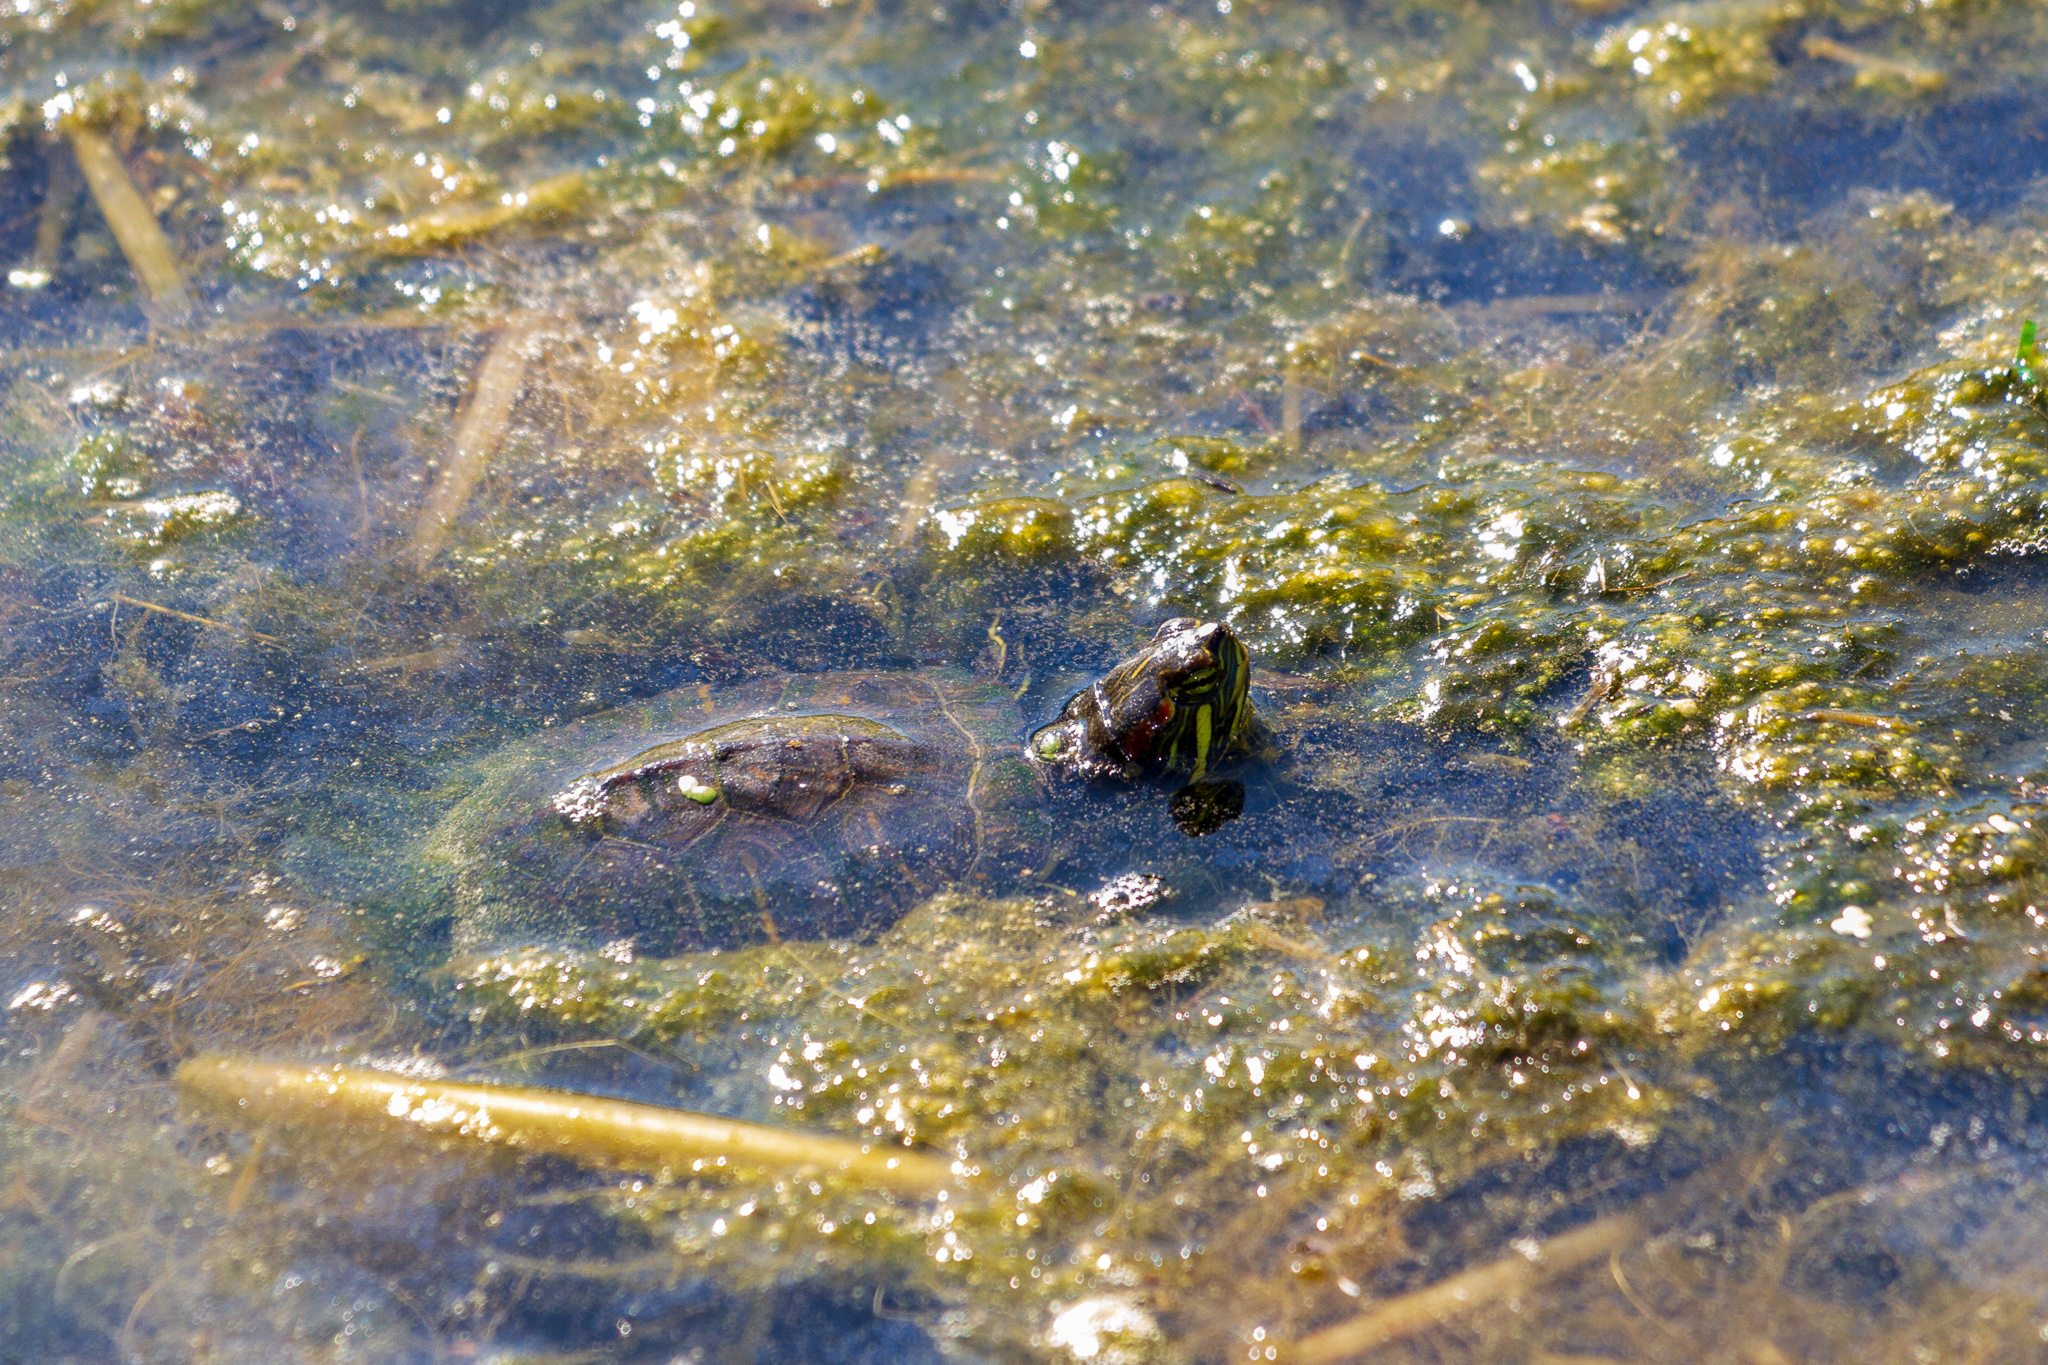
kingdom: Animalia
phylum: Chordata
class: Testudines
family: Emydidae
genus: Trachemys
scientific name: Trachemys scripta
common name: Slider
